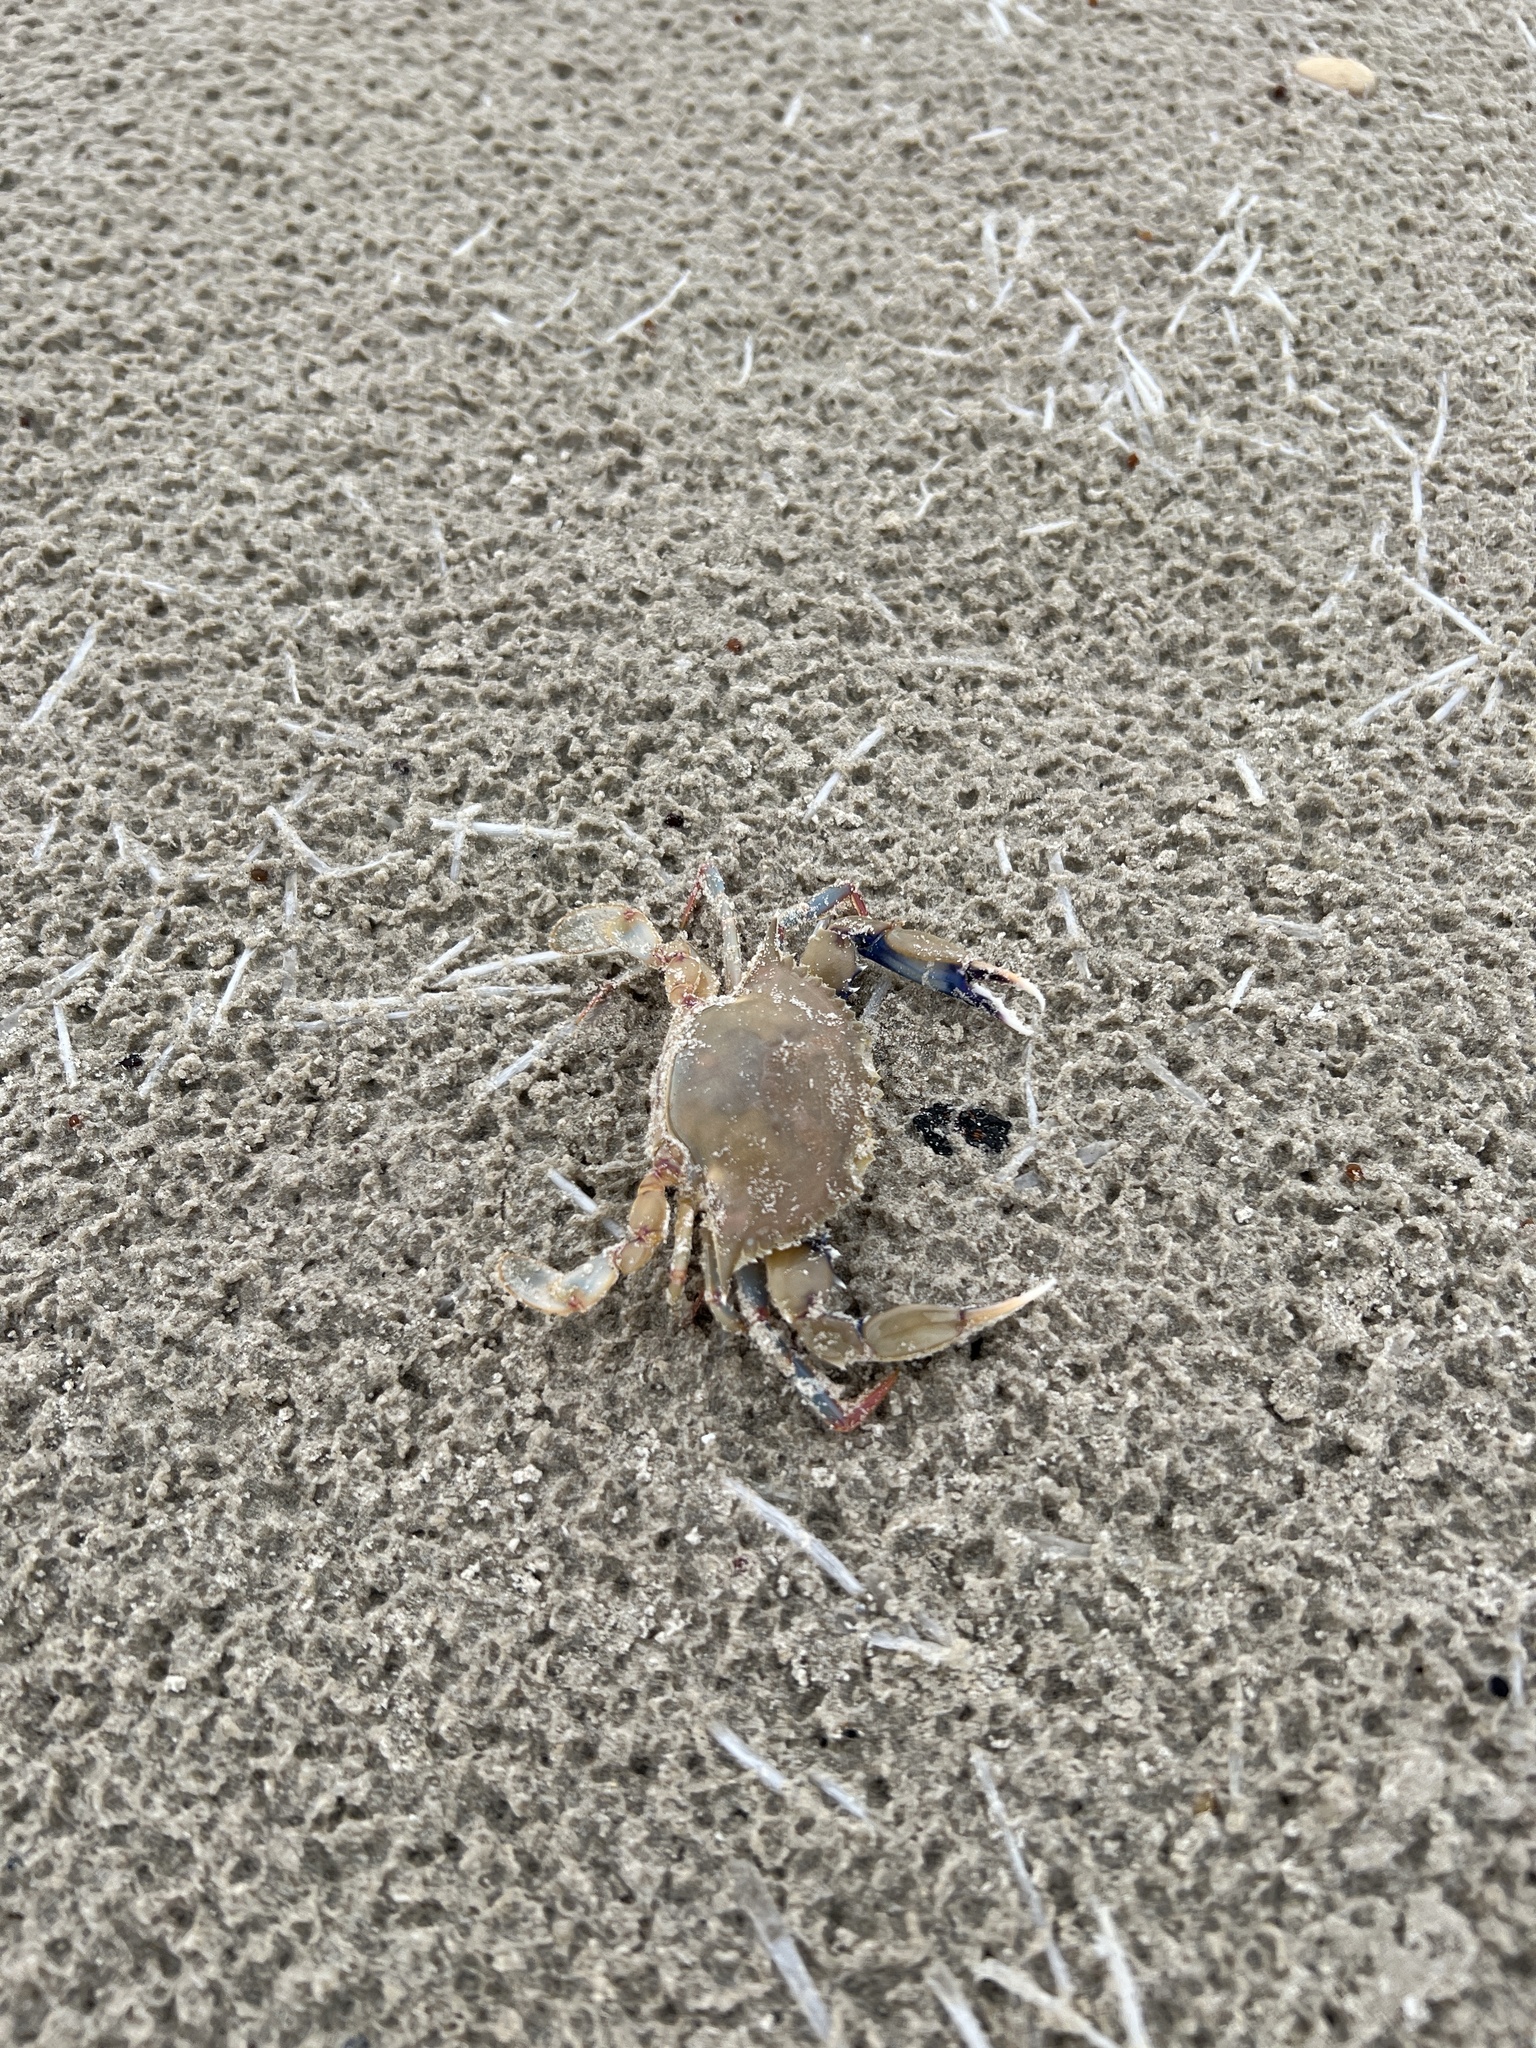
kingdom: Animalia
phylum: Arthropoda
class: Malacostraca
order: Decapoda
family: Portunidae
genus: Callinectes
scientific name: Callinectes similis
